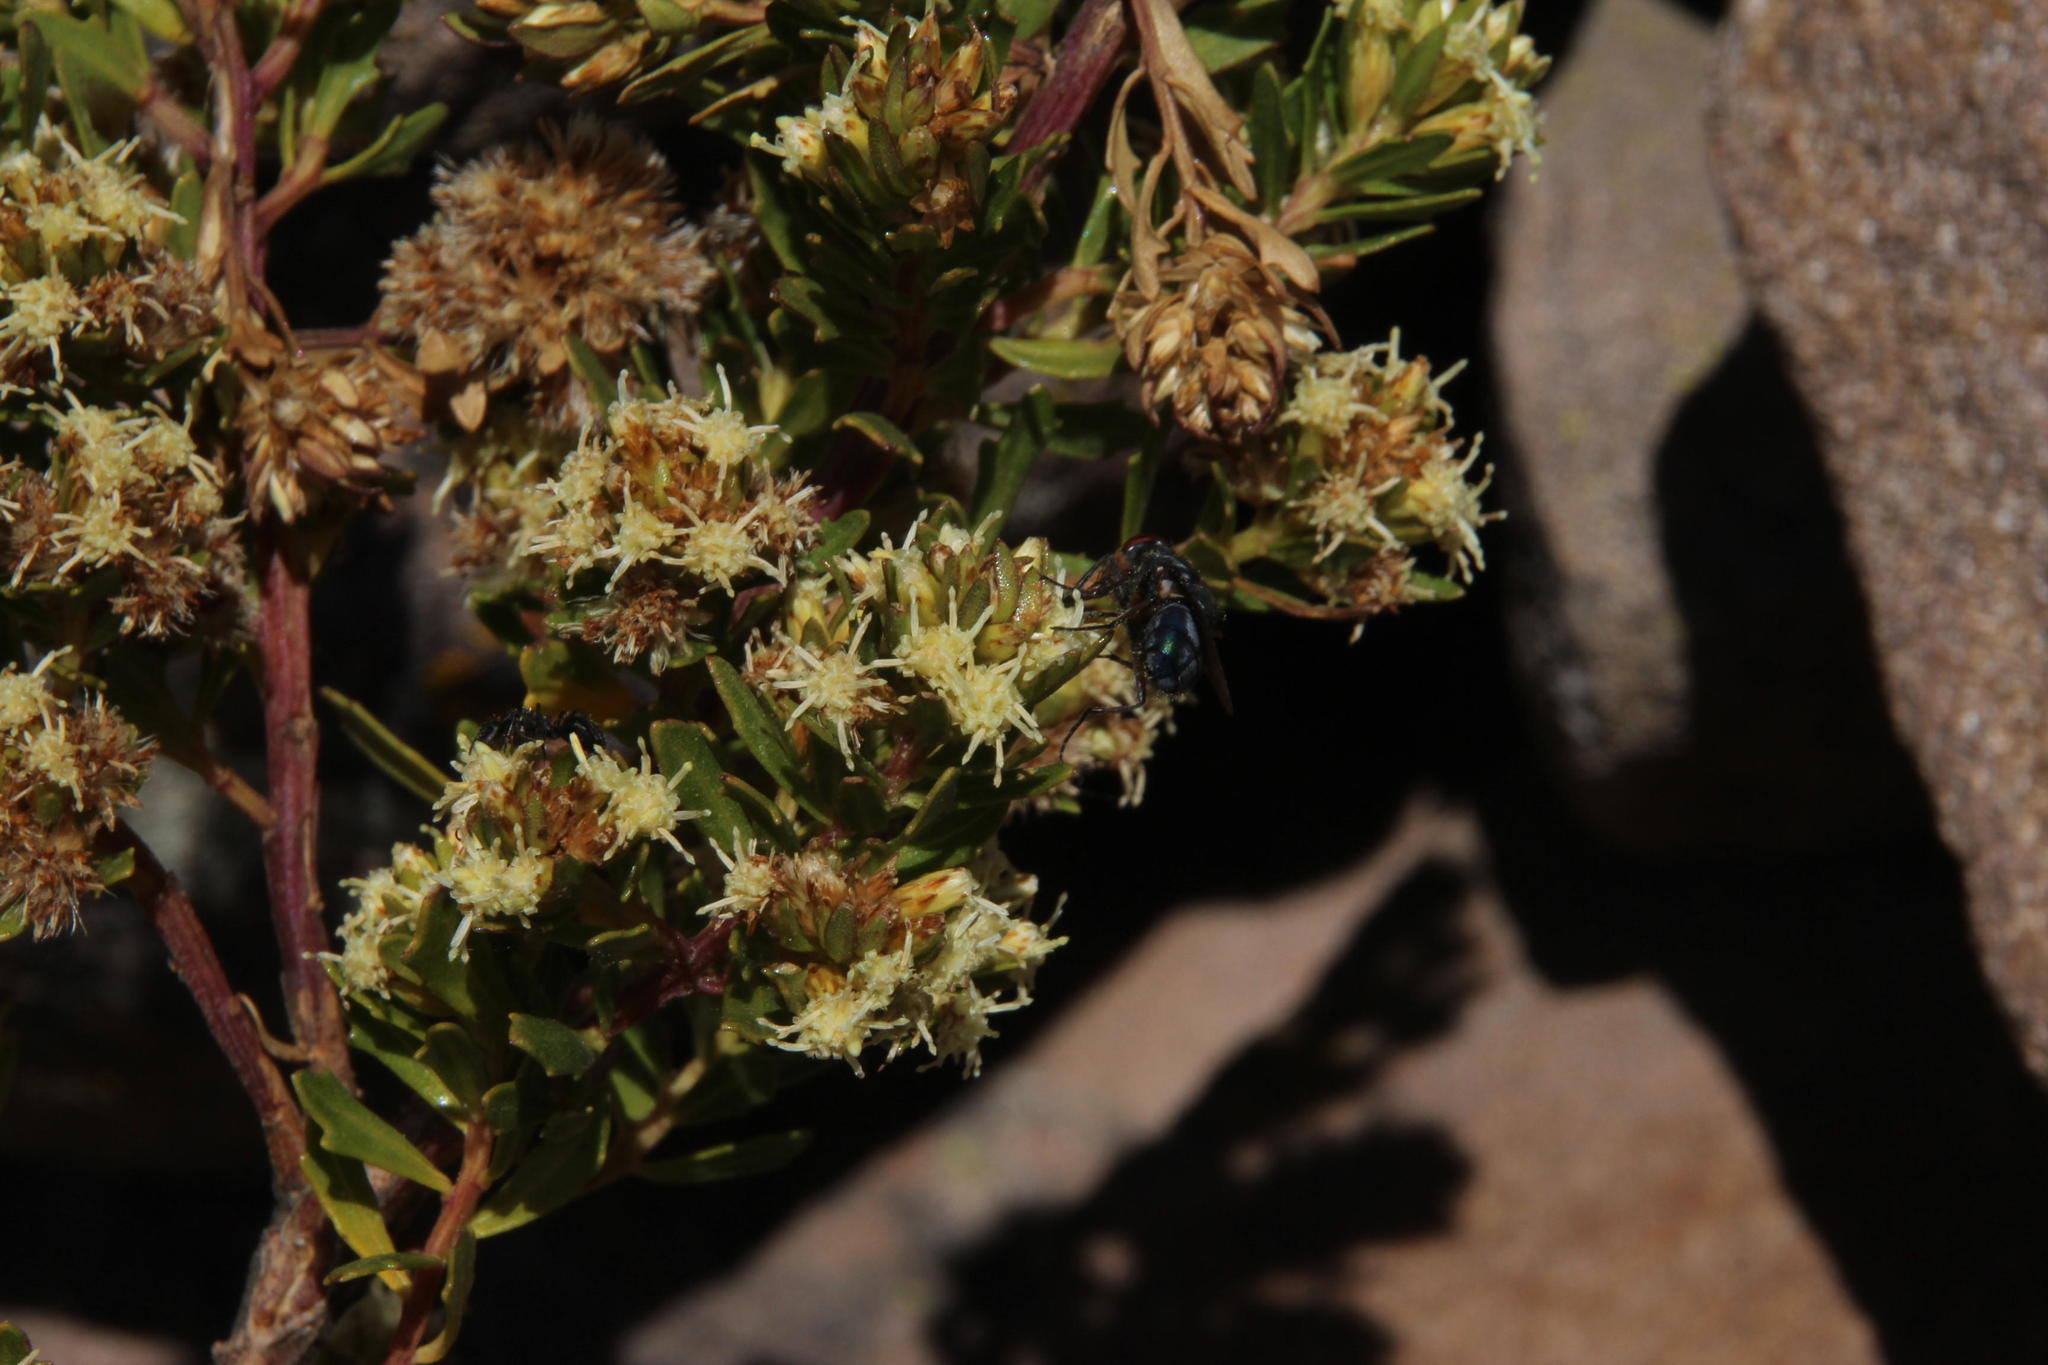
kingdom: Plantae
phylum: Tracheophyta
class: Magnoliopsida
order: Asterales
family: Asteraceae
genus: Baccharis
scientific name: Baccharis tola
